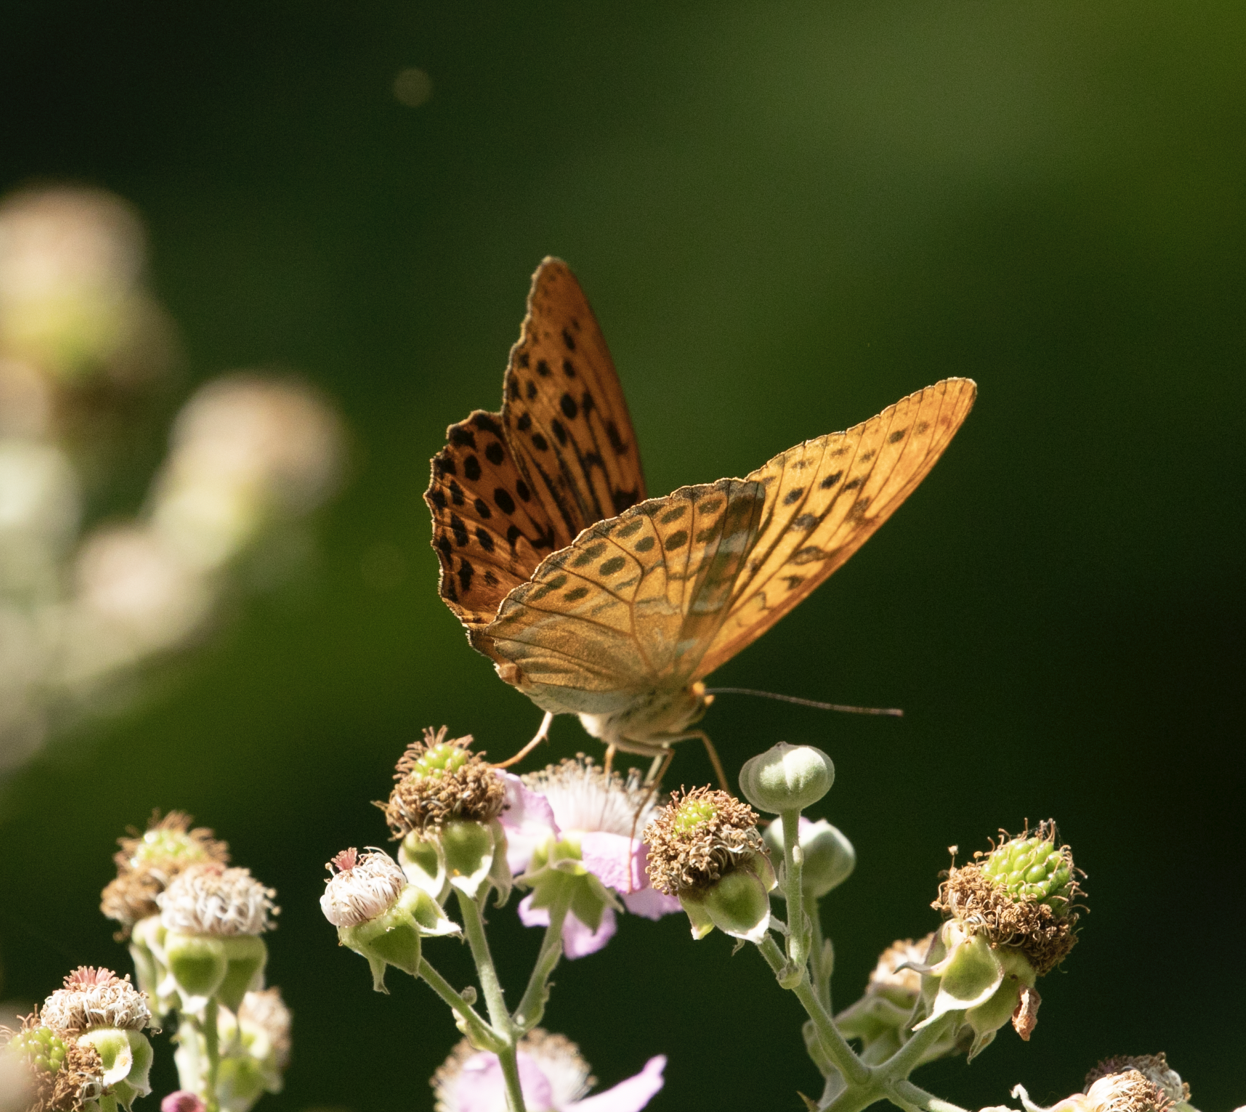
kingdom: Animalia
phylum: Arthropoda
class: Insecta
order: Lepidoptera
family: Nymphalidae
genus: Argynnis
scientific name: Argynnis paphia
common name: Silver-washed fritillary
